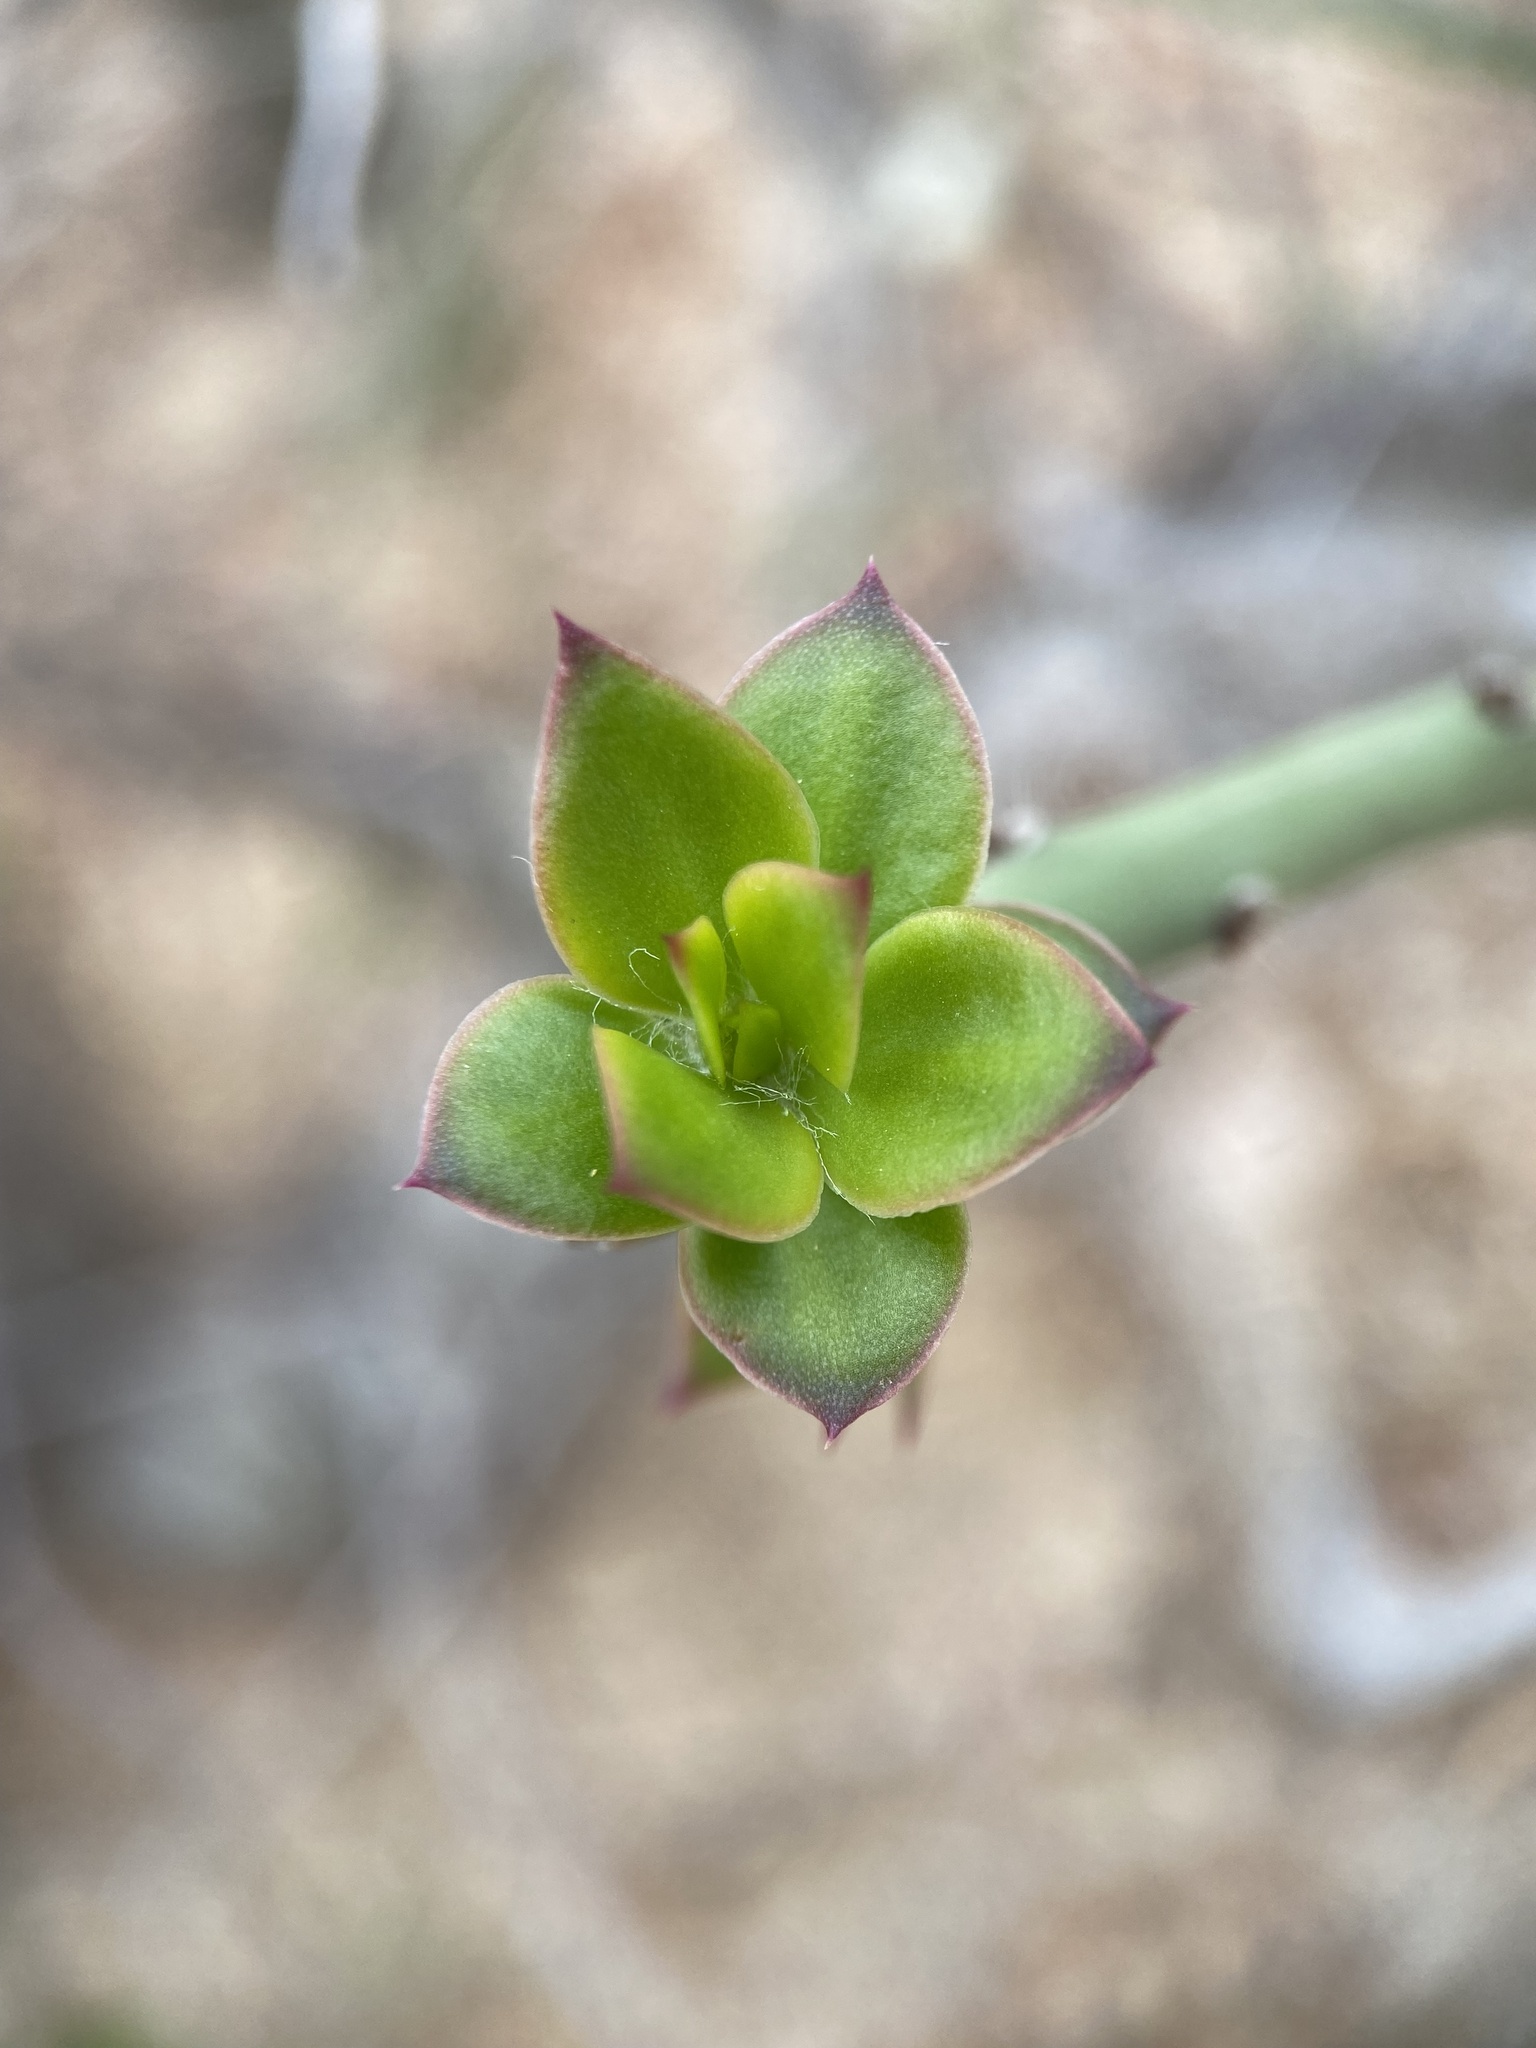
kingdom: Plantae
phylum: Tracheophyta
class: Magnoliopsida
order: Caryophyllales
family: Cactaceae
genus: Pereskiopsis
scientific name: Pereskiopsis porteri
